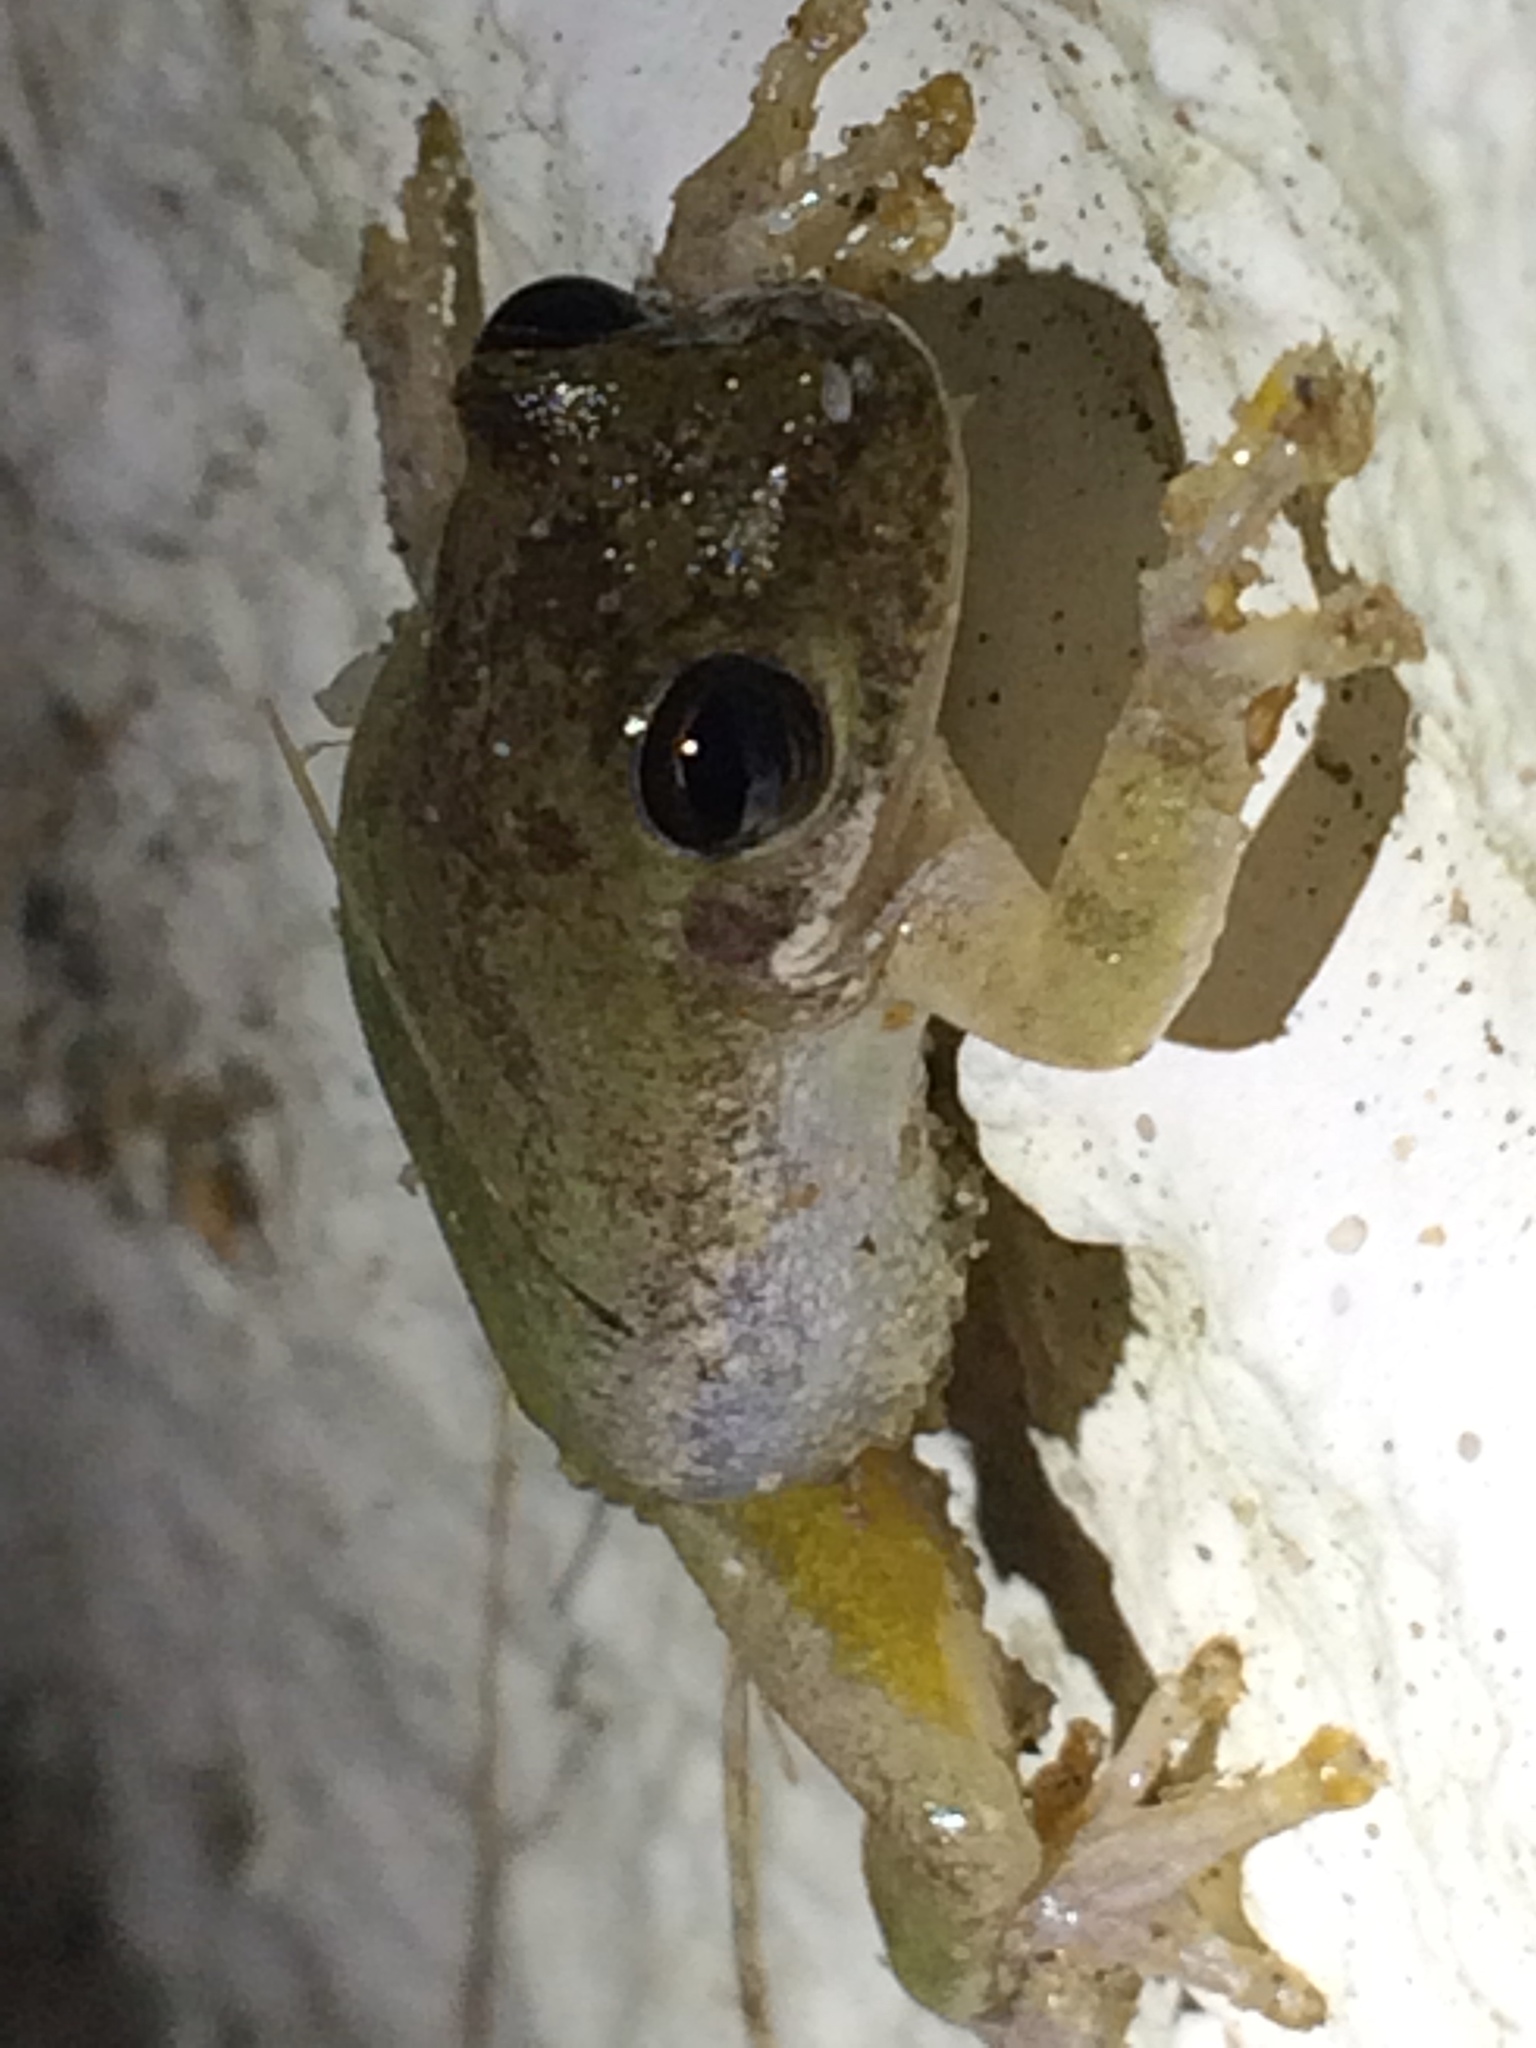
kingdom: Animalia
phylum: Chordata
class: Amphibia
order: Anura
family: Hylidae
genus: Dryophytes
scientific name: Dryophytes squirellus
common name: Squirrel treefrog
